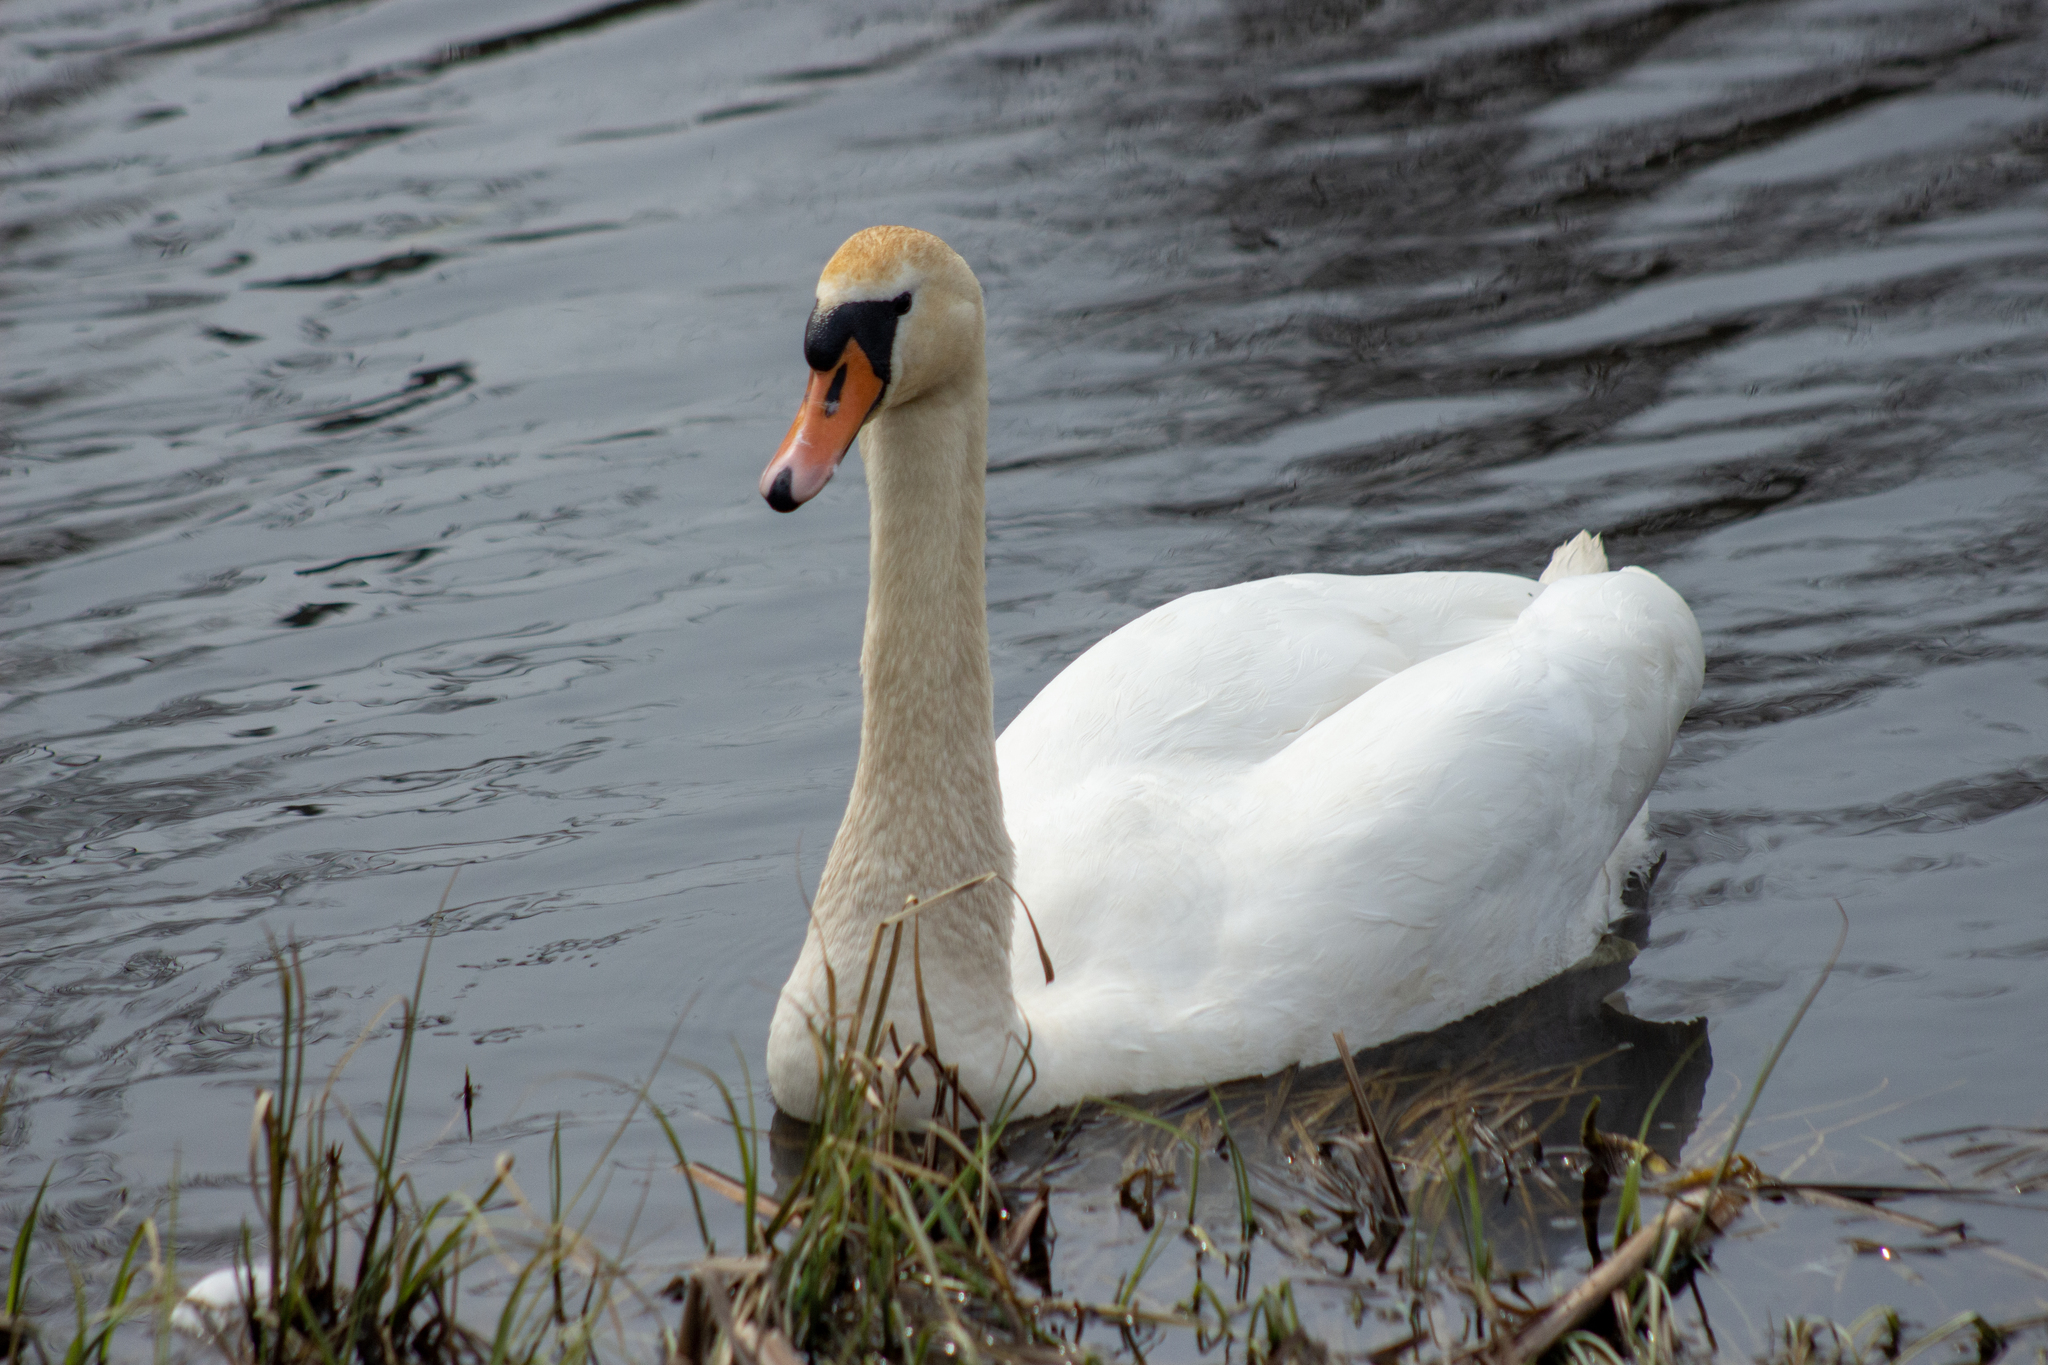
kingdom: Animalia
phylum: Chordata
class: Aves
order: Anseriformes
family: Anatidae
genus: Cygnus
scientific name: Cygnus olor
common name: Mute swan
